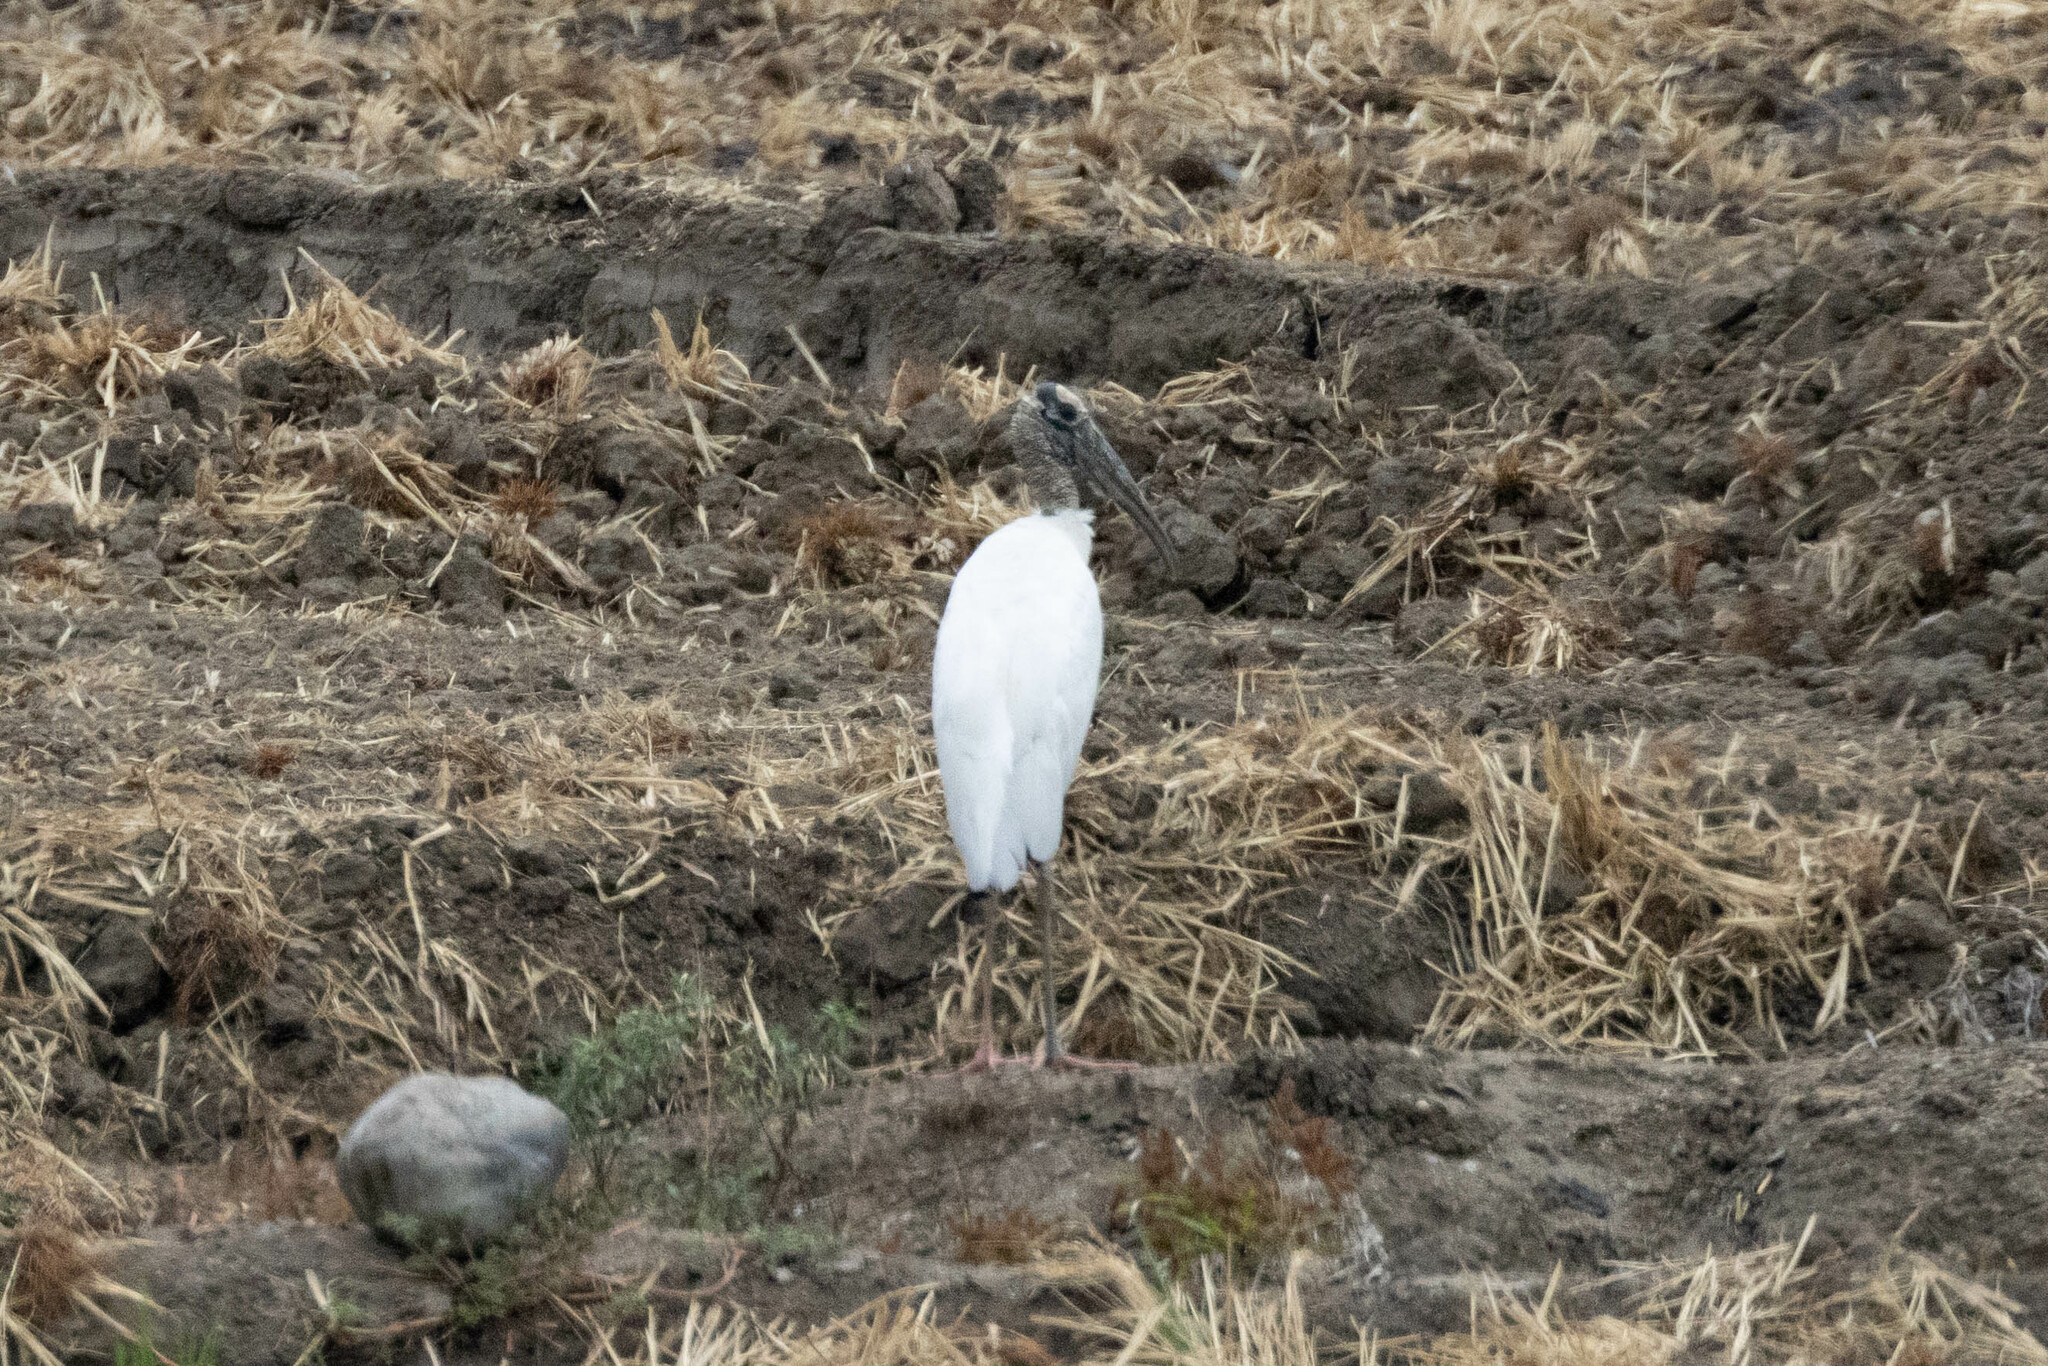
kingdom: Animalia
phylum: Chordata
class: Aves
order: Ciconiiformes
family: Ciconiidae
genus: Mycteria
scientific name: Mycteria americana
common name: Wood stork
